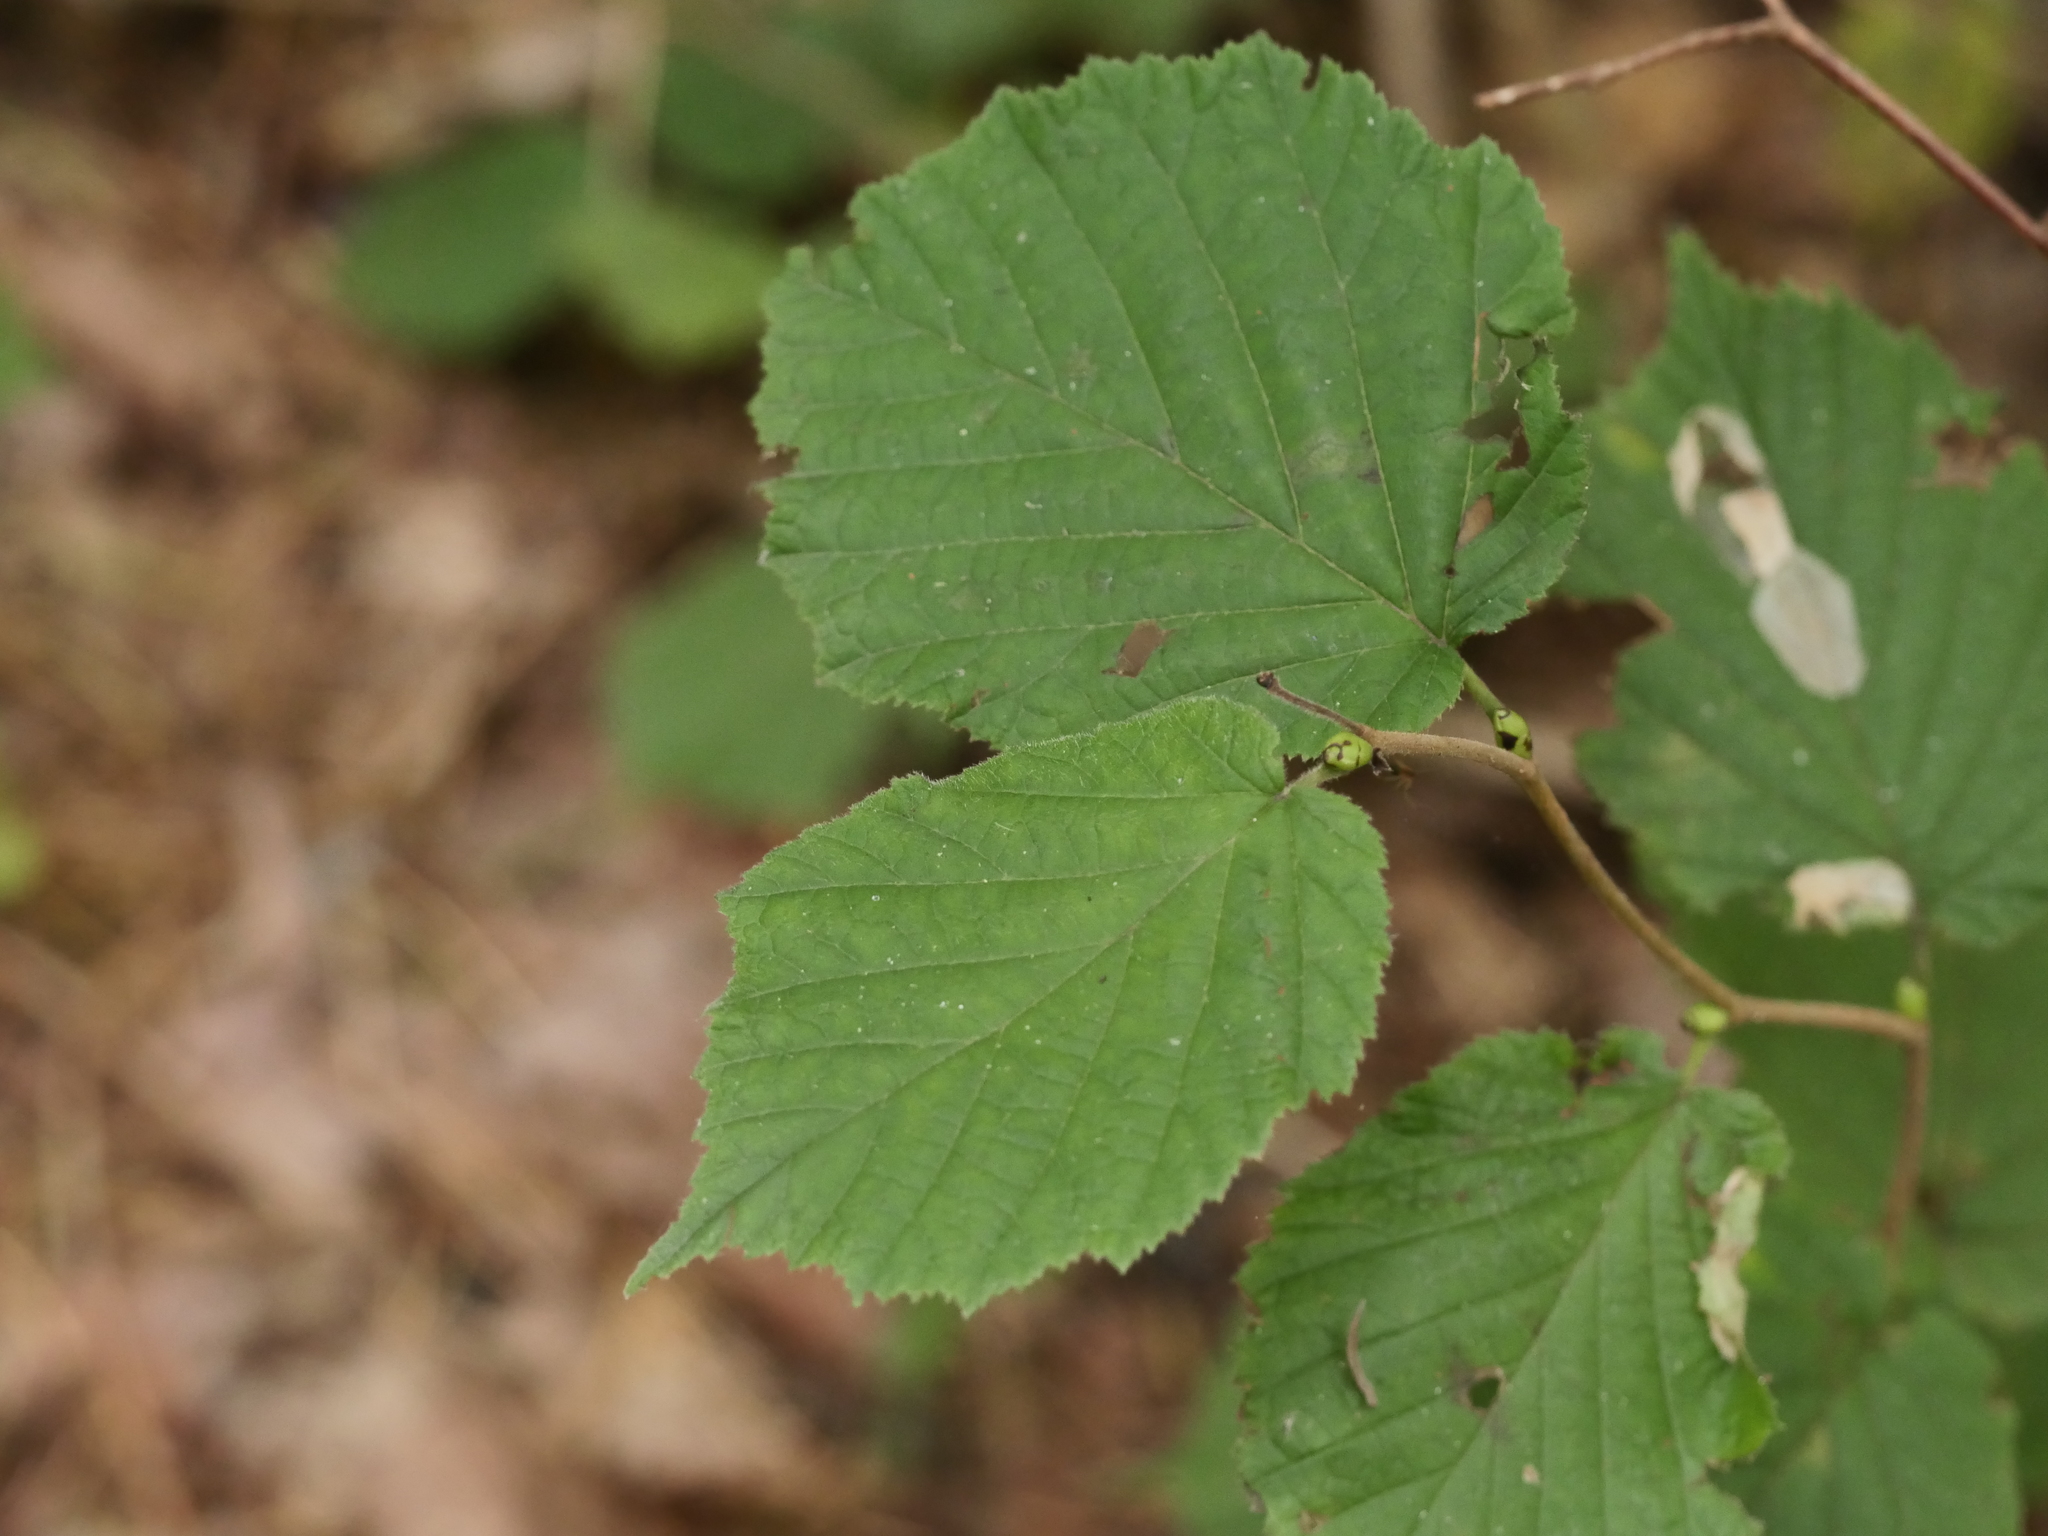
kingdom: Plantae
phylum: Tracheophyta
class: Magnoliopsida
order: Fagales
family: Betulaceae
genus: Corylus
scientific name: Corylus avellana
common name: European hazel
